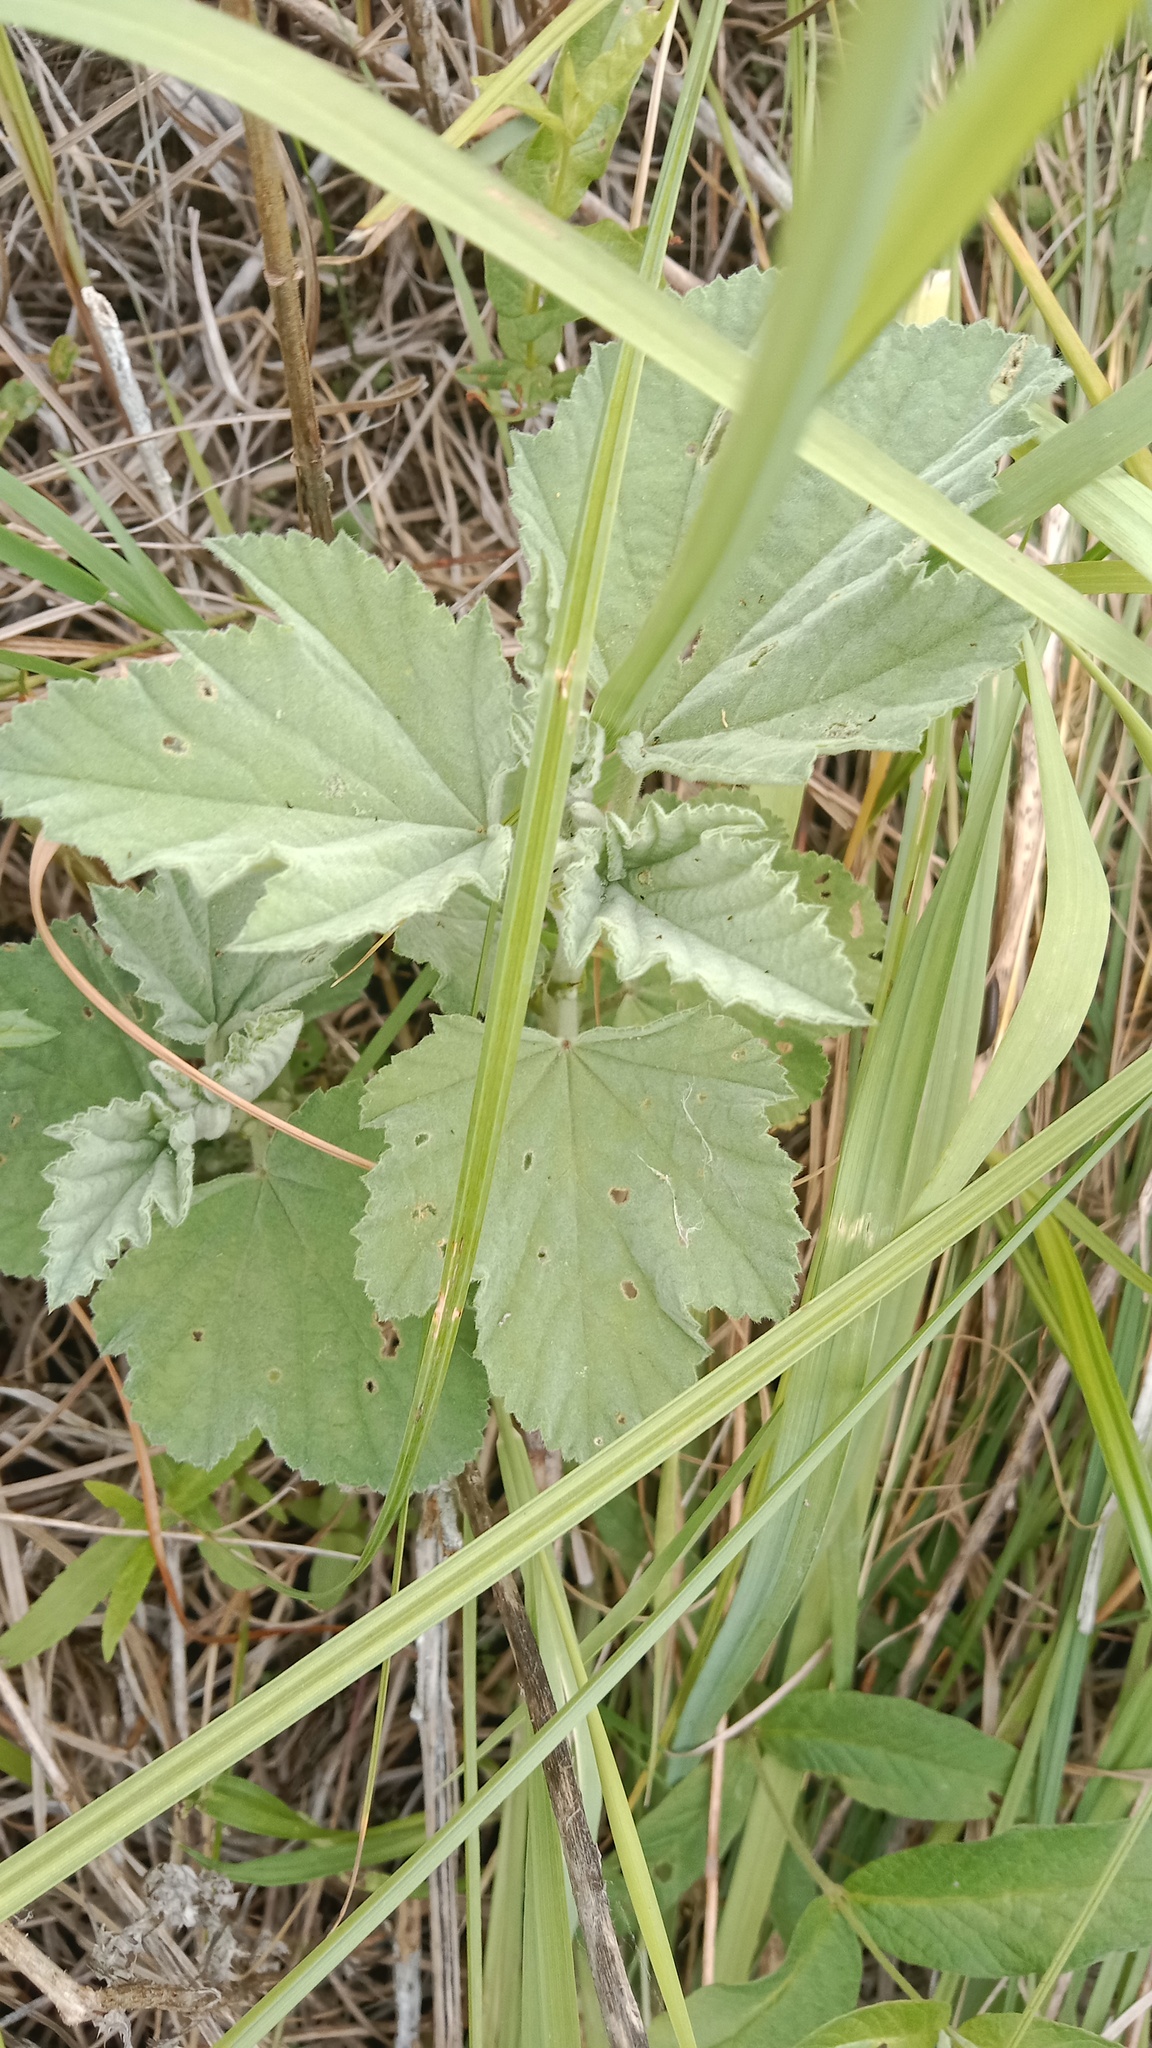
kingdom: Plantae
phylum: Tracheophyta
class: Magnoliopsida
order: Malvales
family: Malvaceae
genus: Althaea
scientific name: Althaea officinalis
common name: Marsh-mallow
